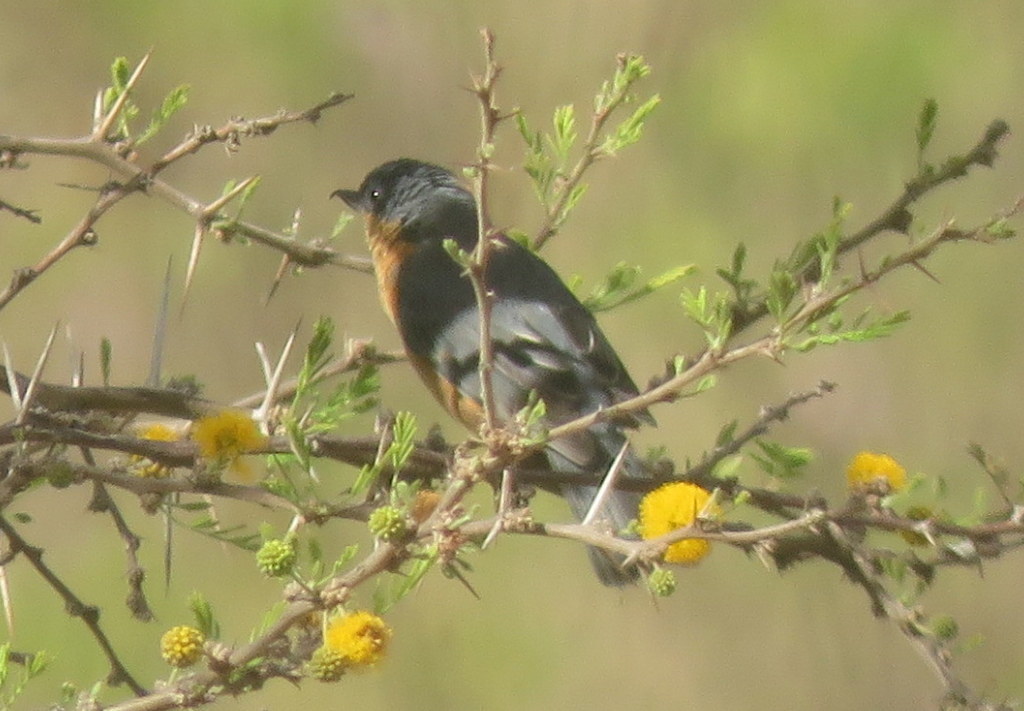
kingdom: Animalia
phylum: Chordata
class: Aves
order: Passeriformes
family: Thraupidae
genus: Diglossa
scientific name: Diglossa sittoides
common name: Rusty flowerpiercer
